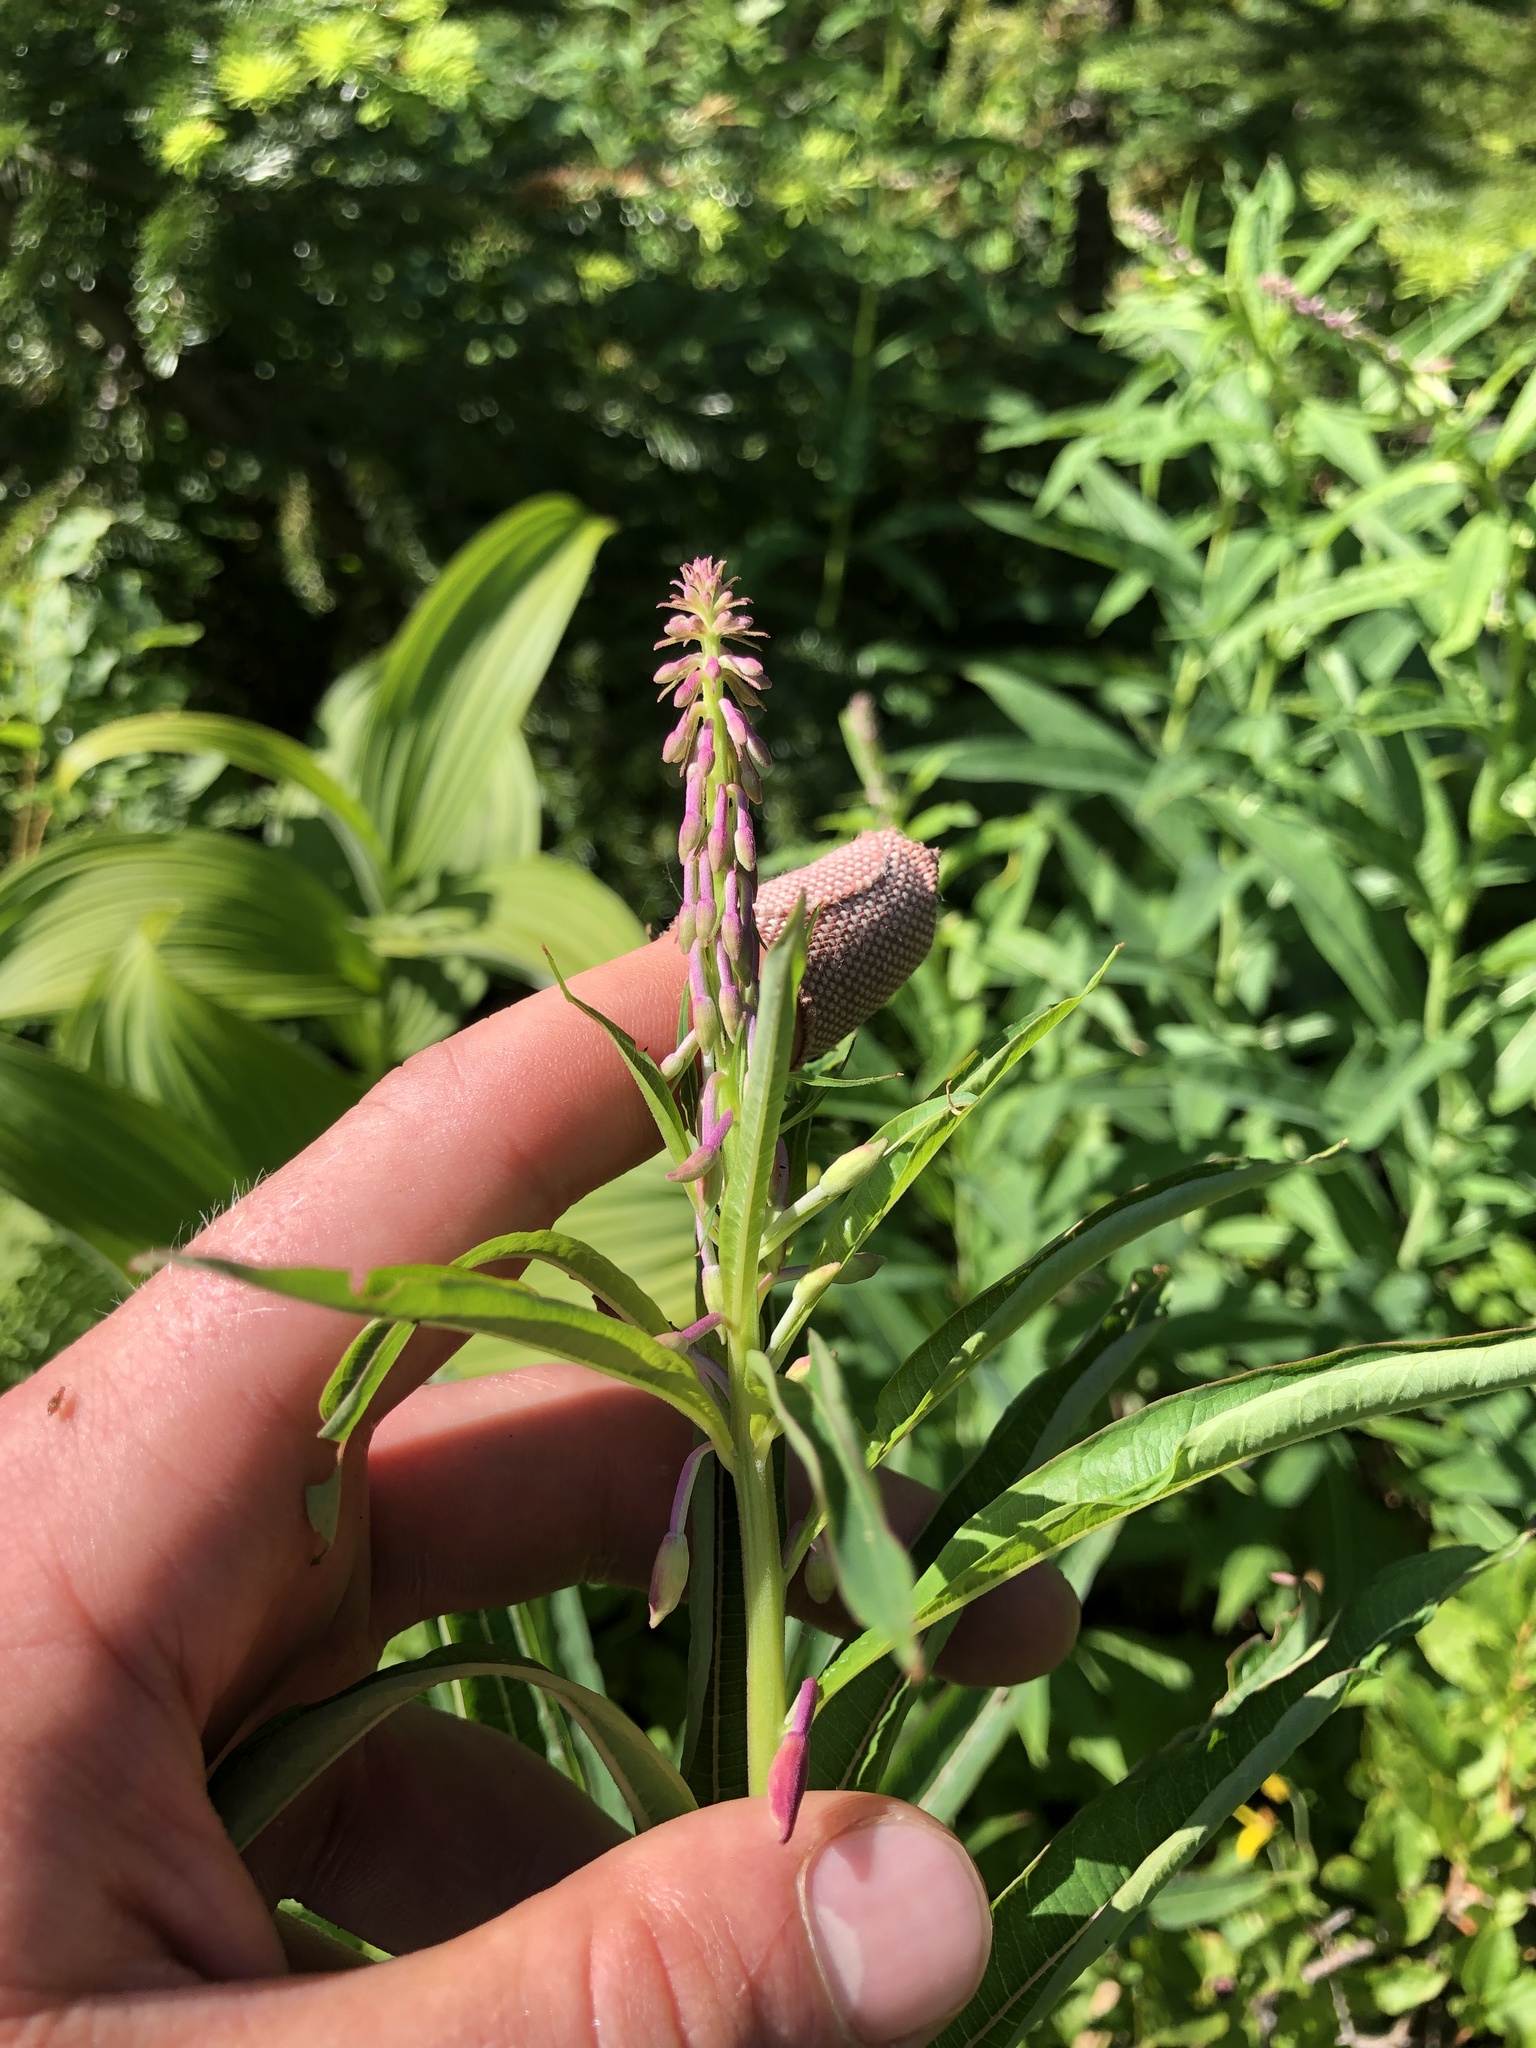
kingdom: Plantae
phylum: Tracheophyta
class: Magnoliopsida
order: Myrtales
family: Onagraceae
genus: Chamaenerion
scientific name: Chamaenerion angustifolium
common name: Fireweed
